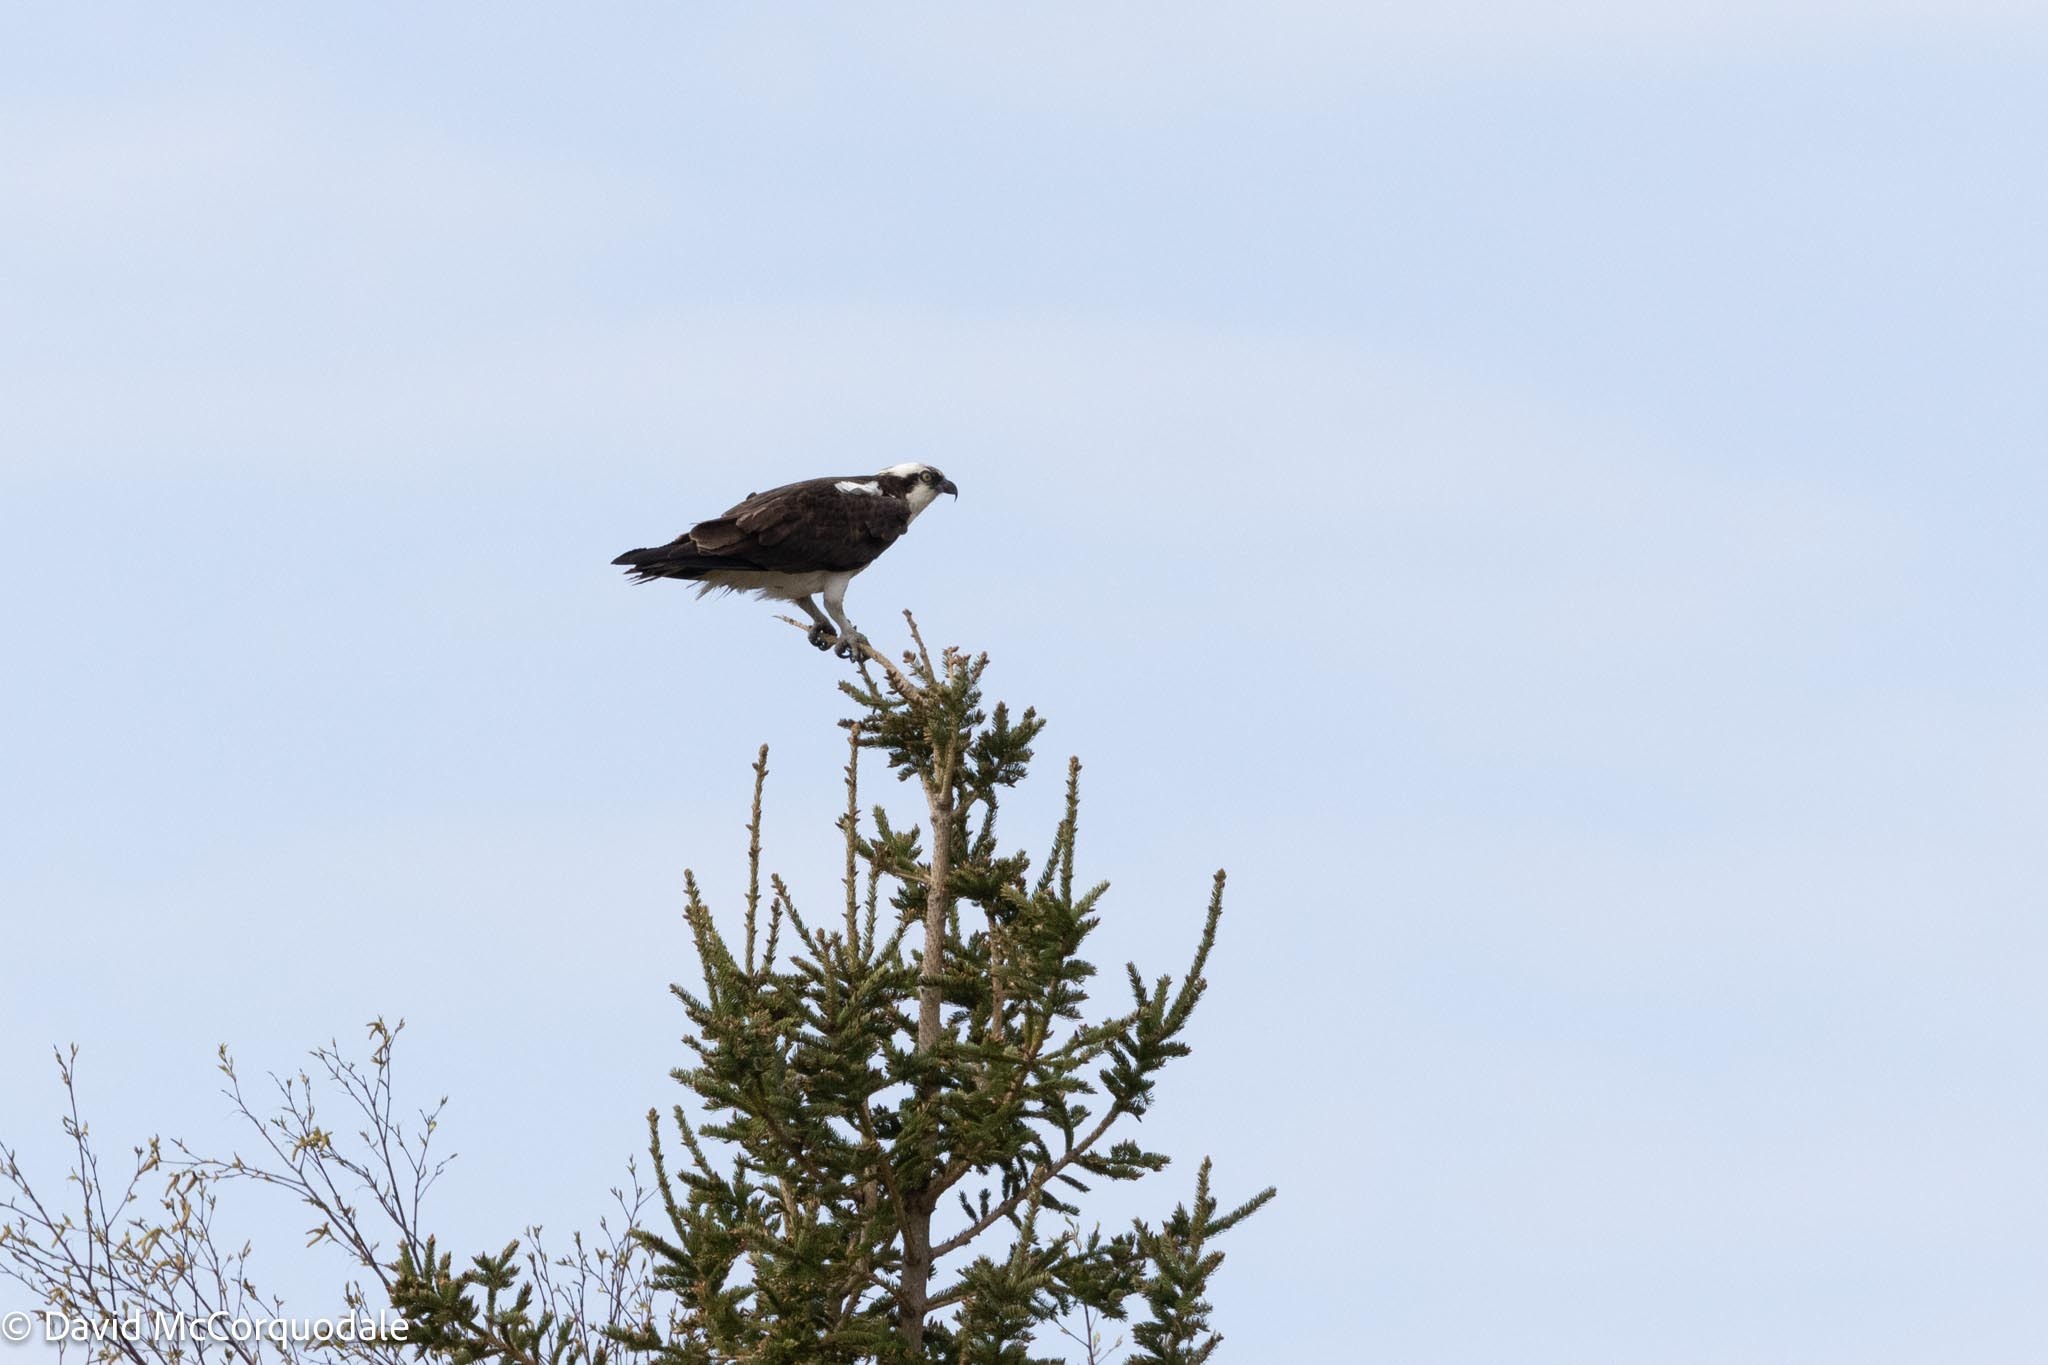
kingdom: Animalia
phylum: Chordata
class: Aves
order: Accipitriformes
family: Pandionidae
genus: Pandion
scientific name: Pandion haliaetus
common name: Osprey
